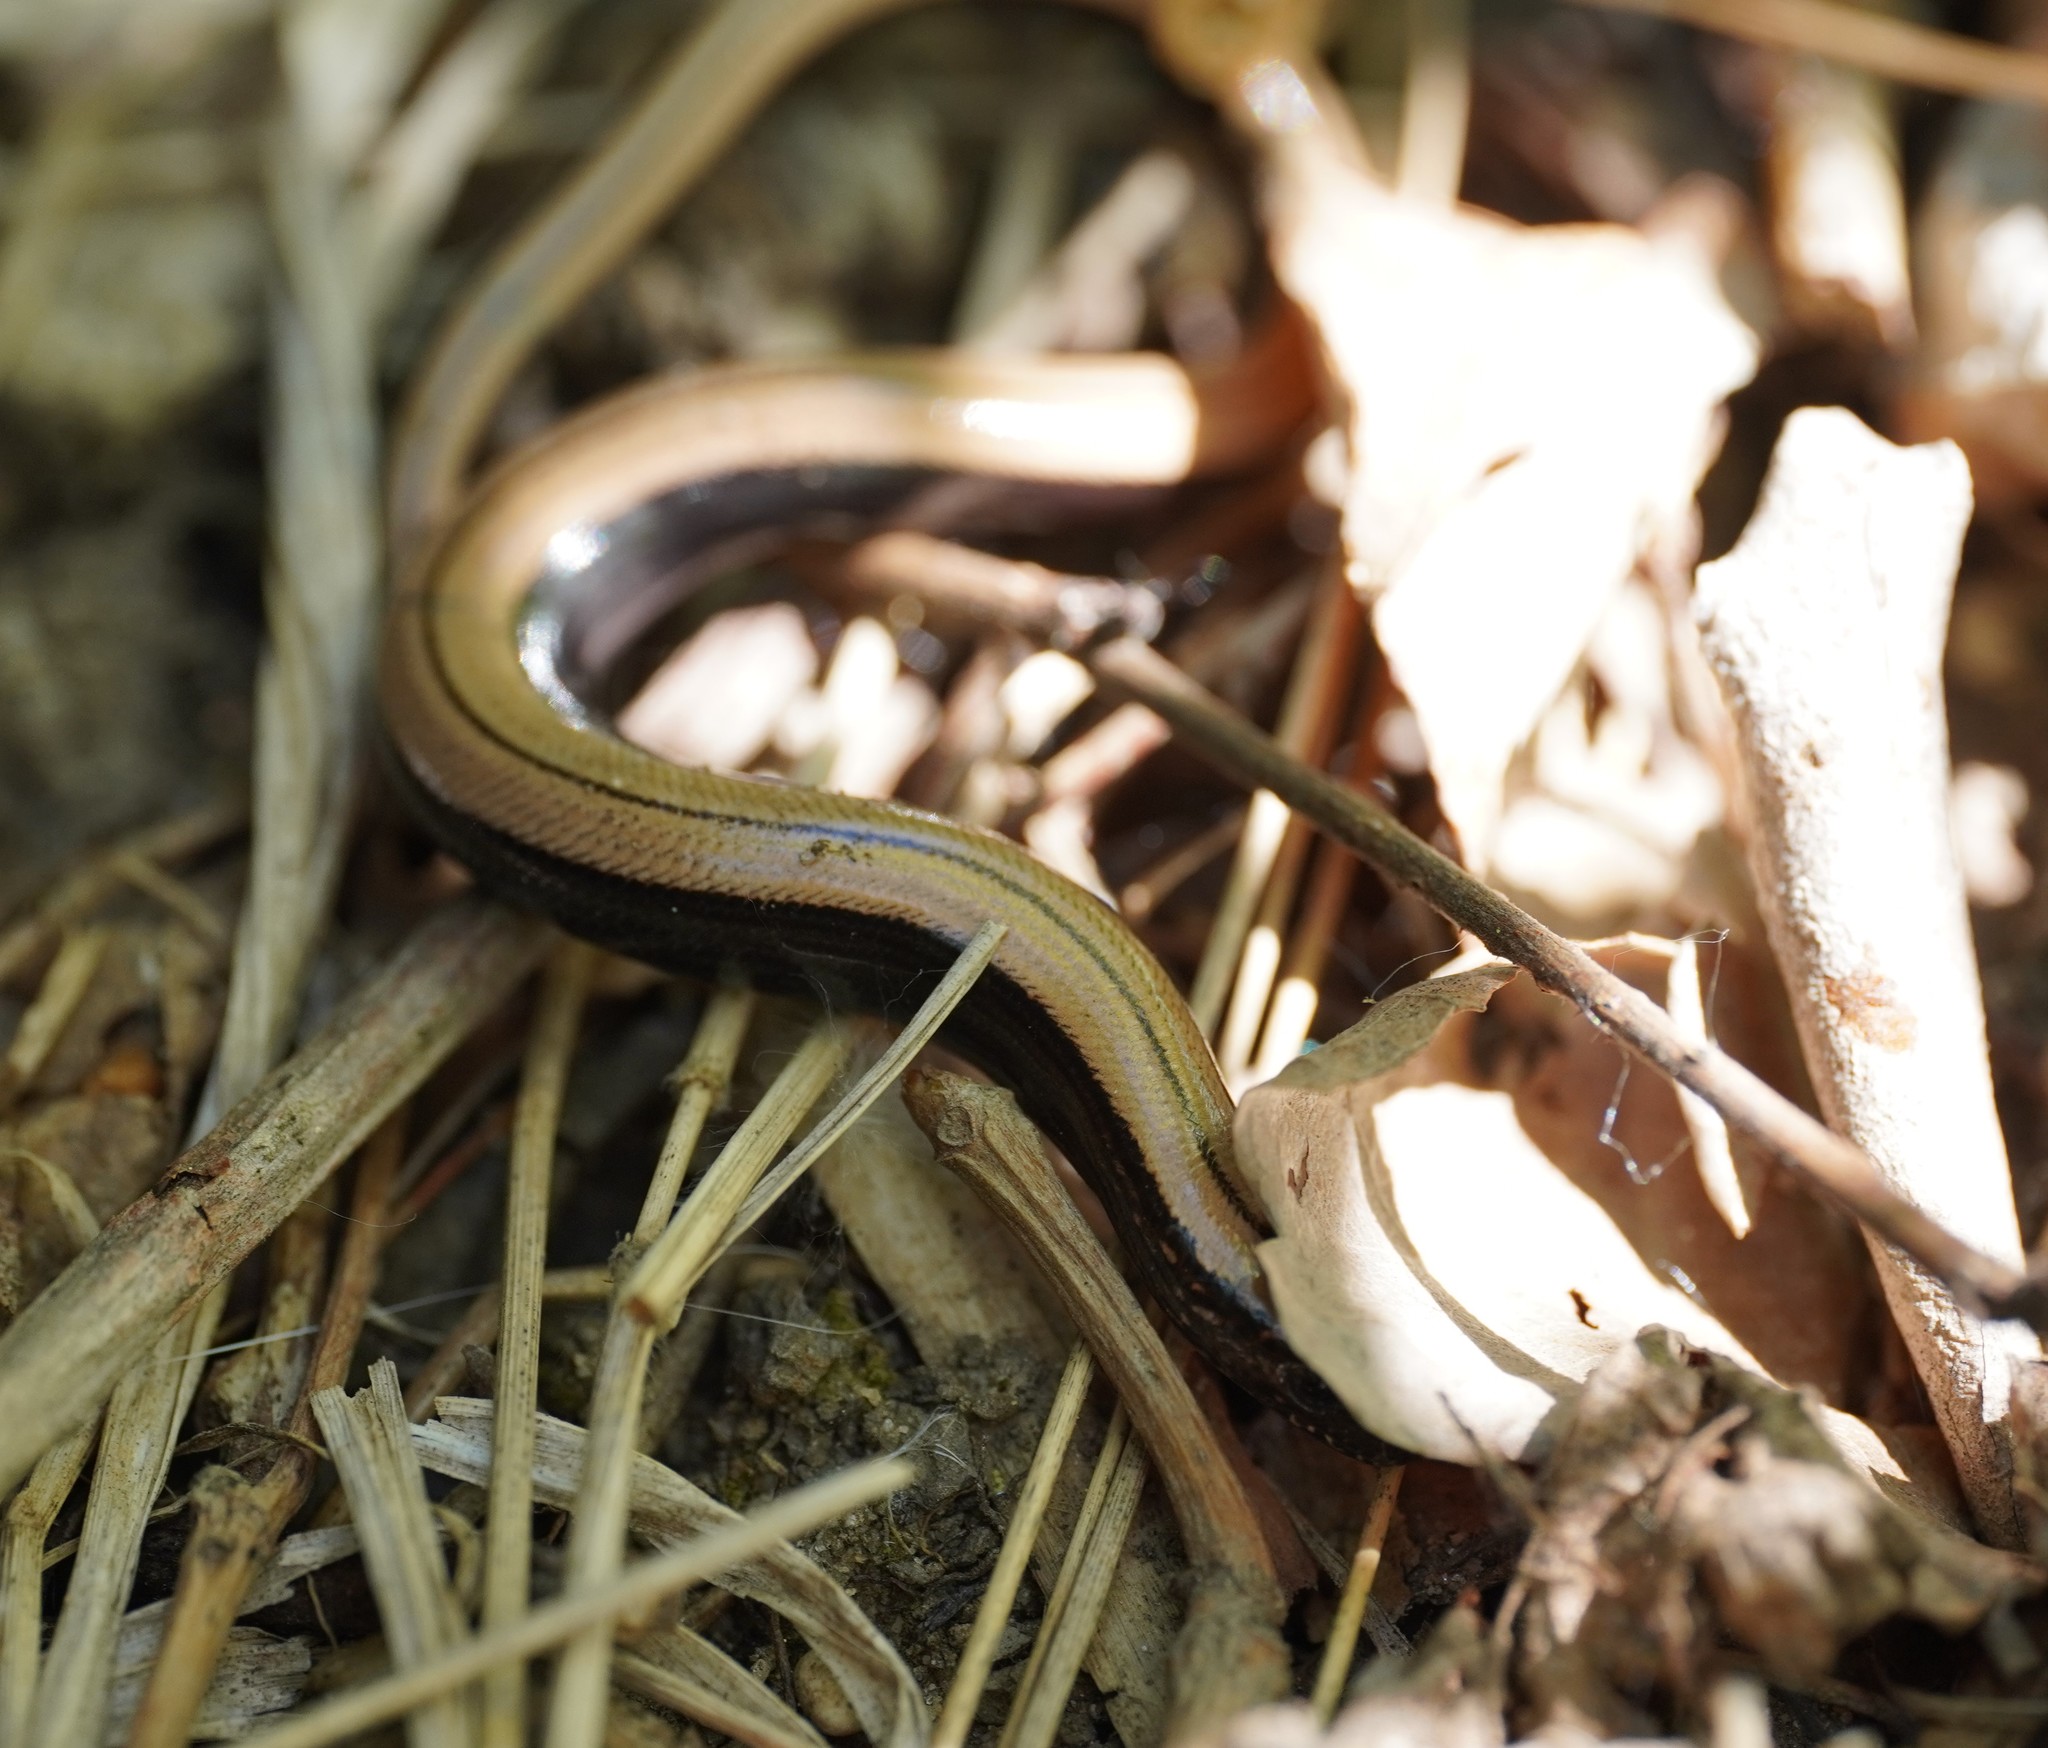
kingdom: Animalia
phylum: Chordata
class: Squamata
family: Anguidae
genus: Anguis
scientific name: Anguis fragilis
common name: Slow worm
